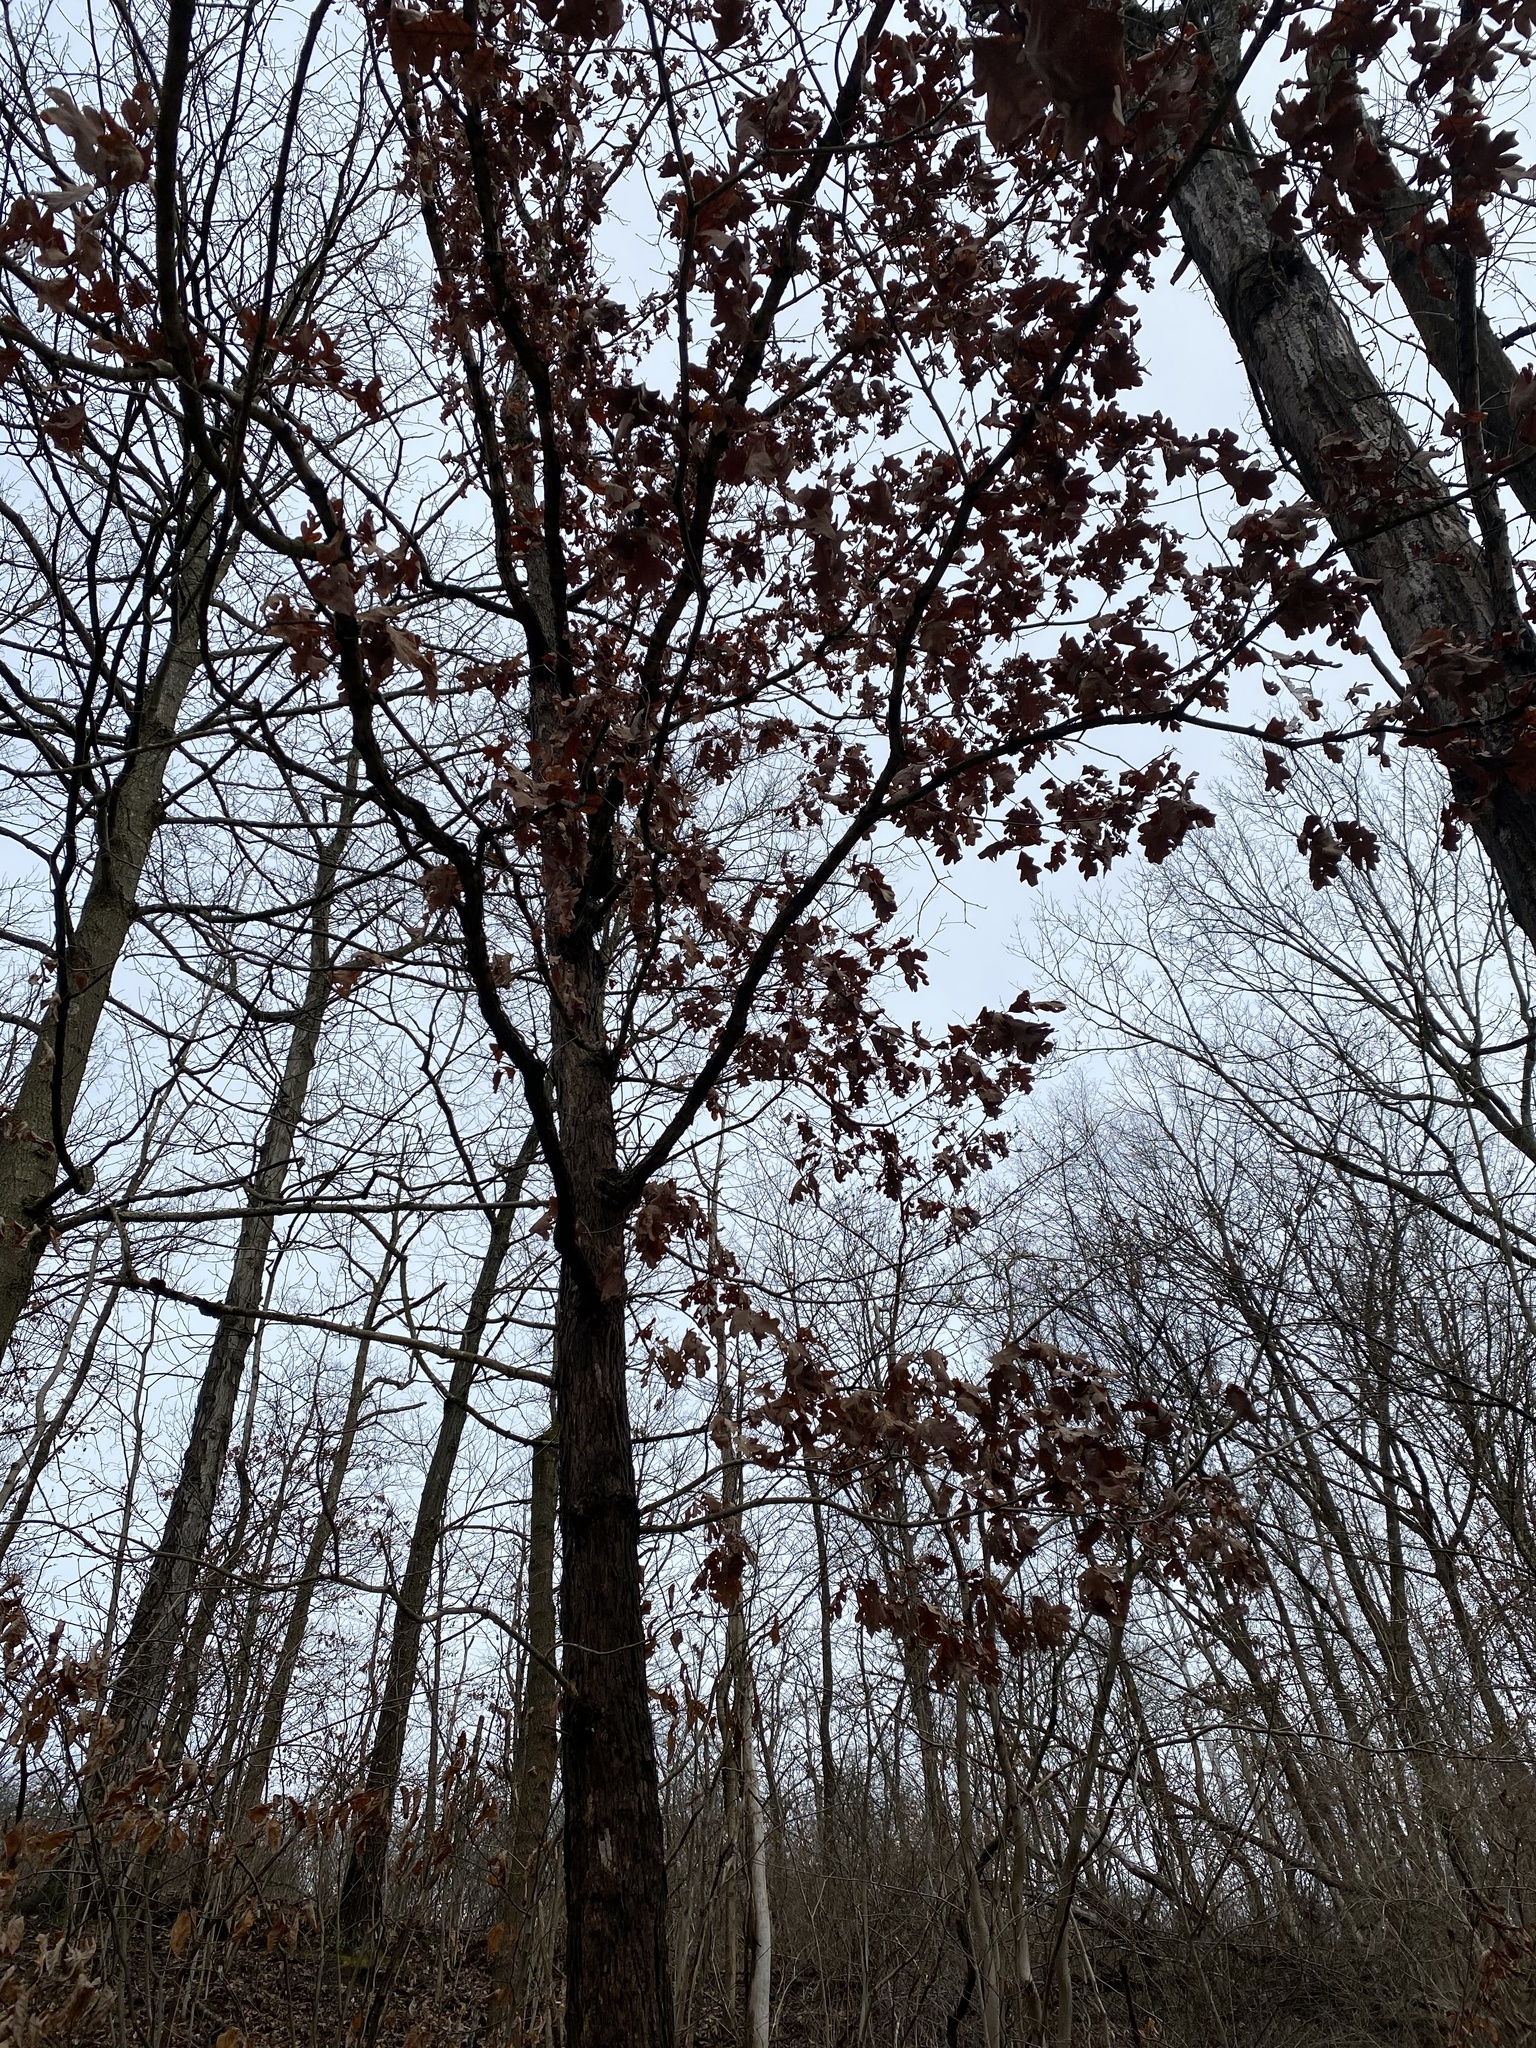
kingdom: Plantae
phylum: Tracheophyta
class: Magnoliopsida
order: Fagales
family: Fagaceae
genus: Quercus
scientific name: Quercus alba
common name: White oak
